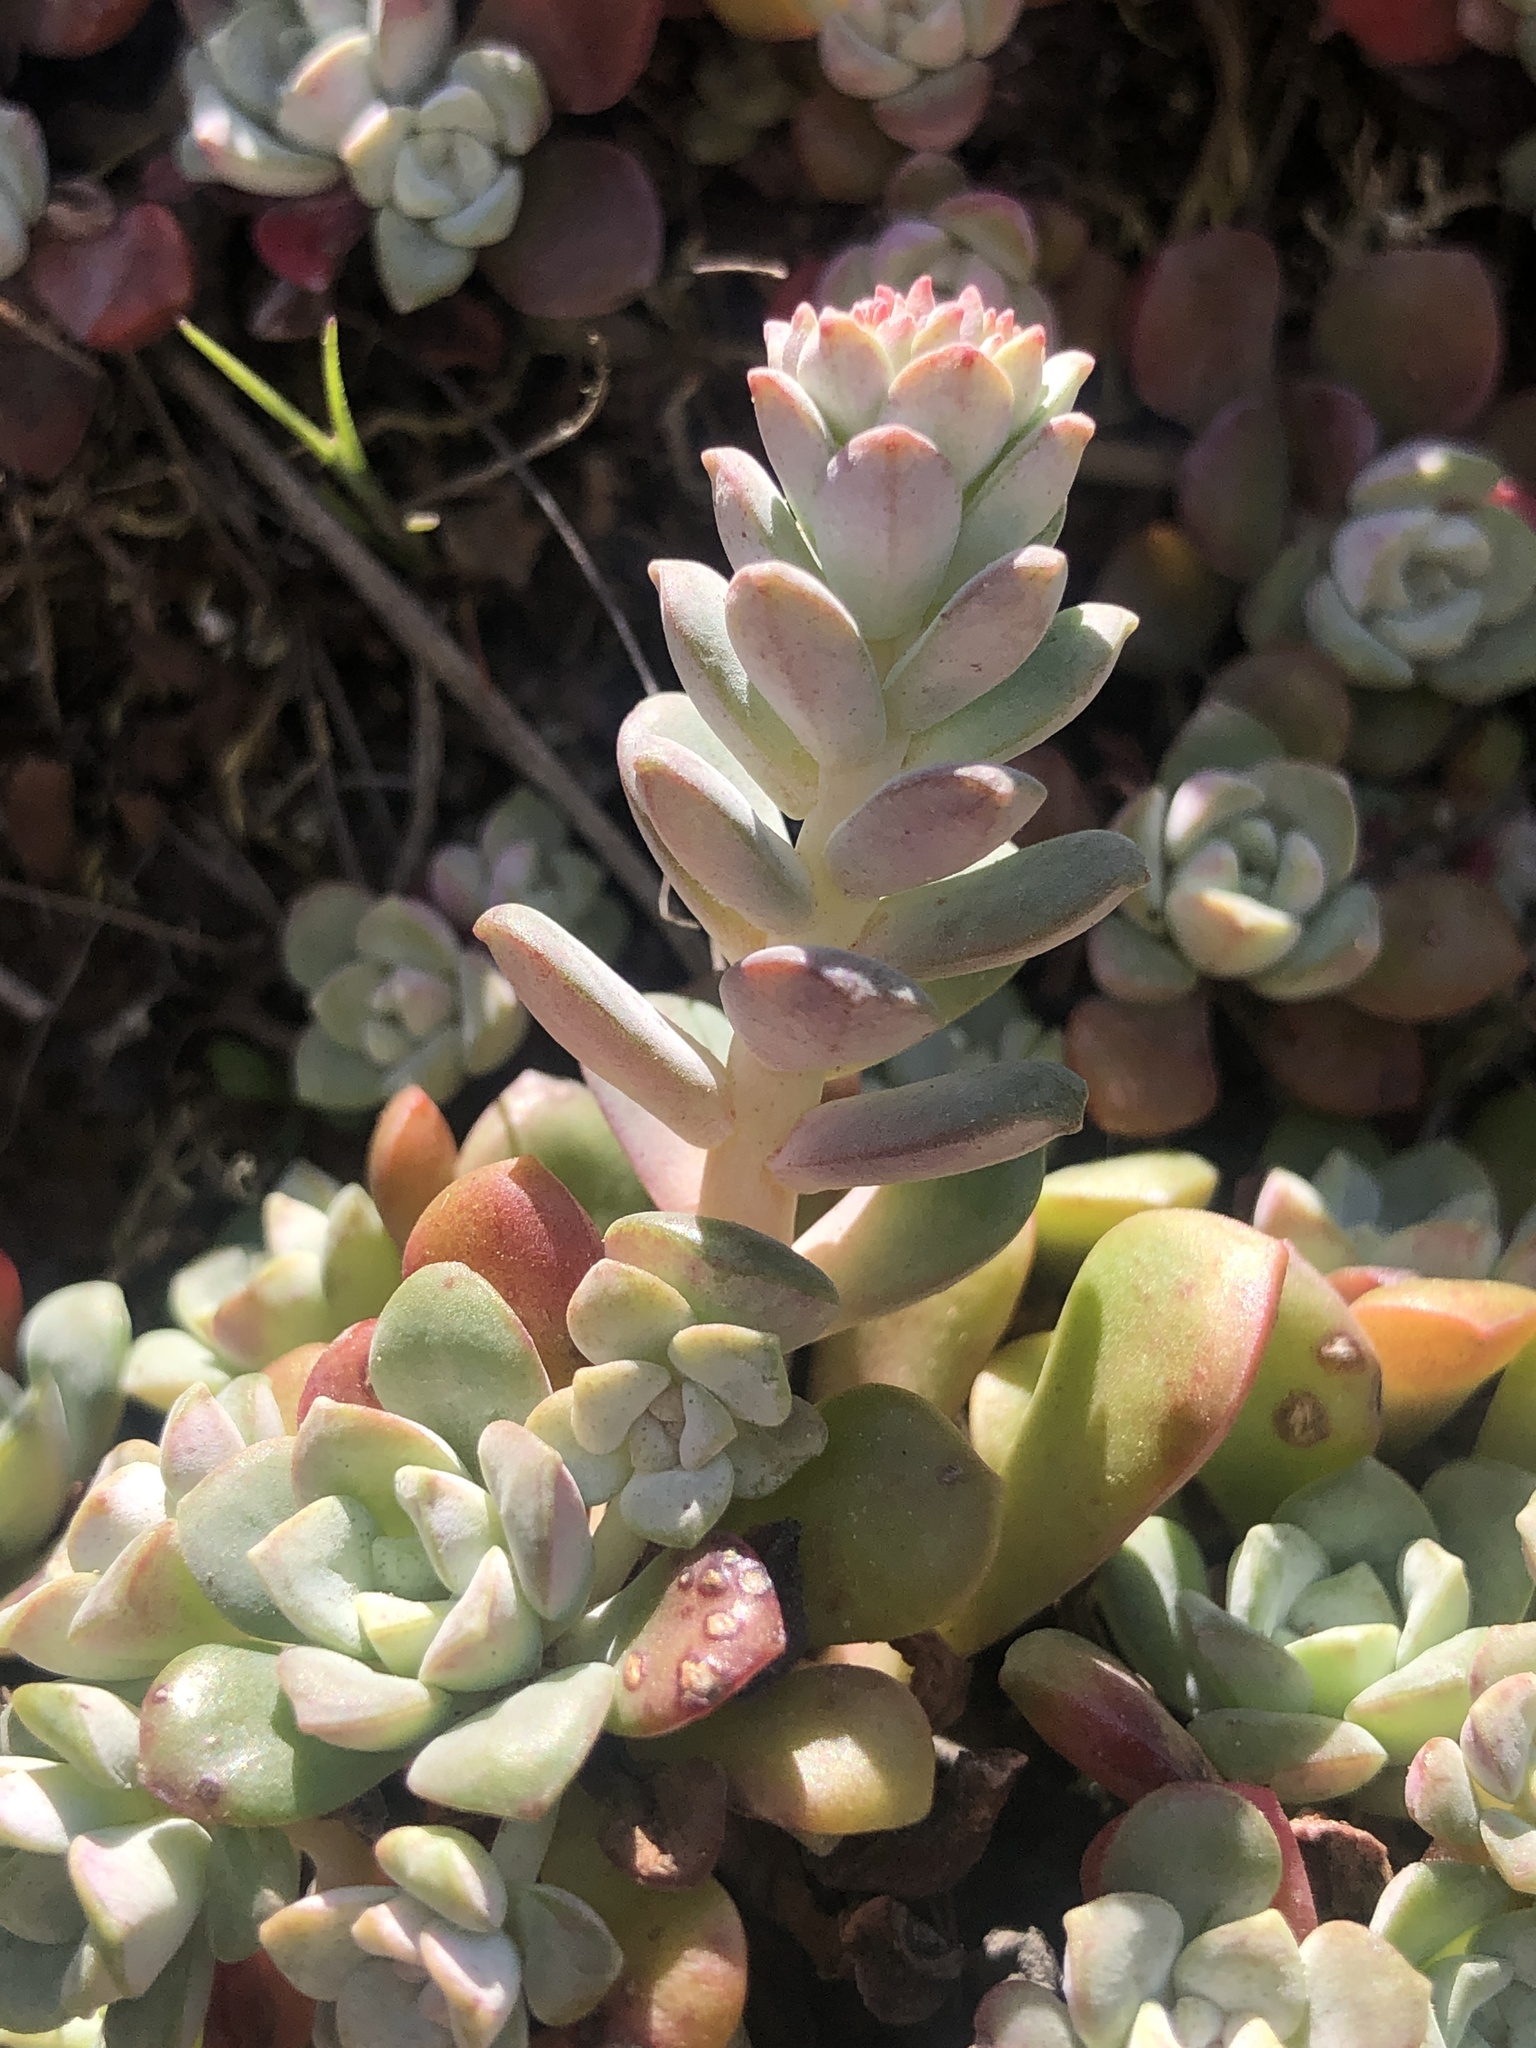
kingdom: Plantae
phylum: Tracheophyta
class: Magnoliopsida
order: Saxifragales
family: Crassulaceae
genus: Sedum
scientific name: Sedum spathulifolium
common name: Colorado stonecrop
